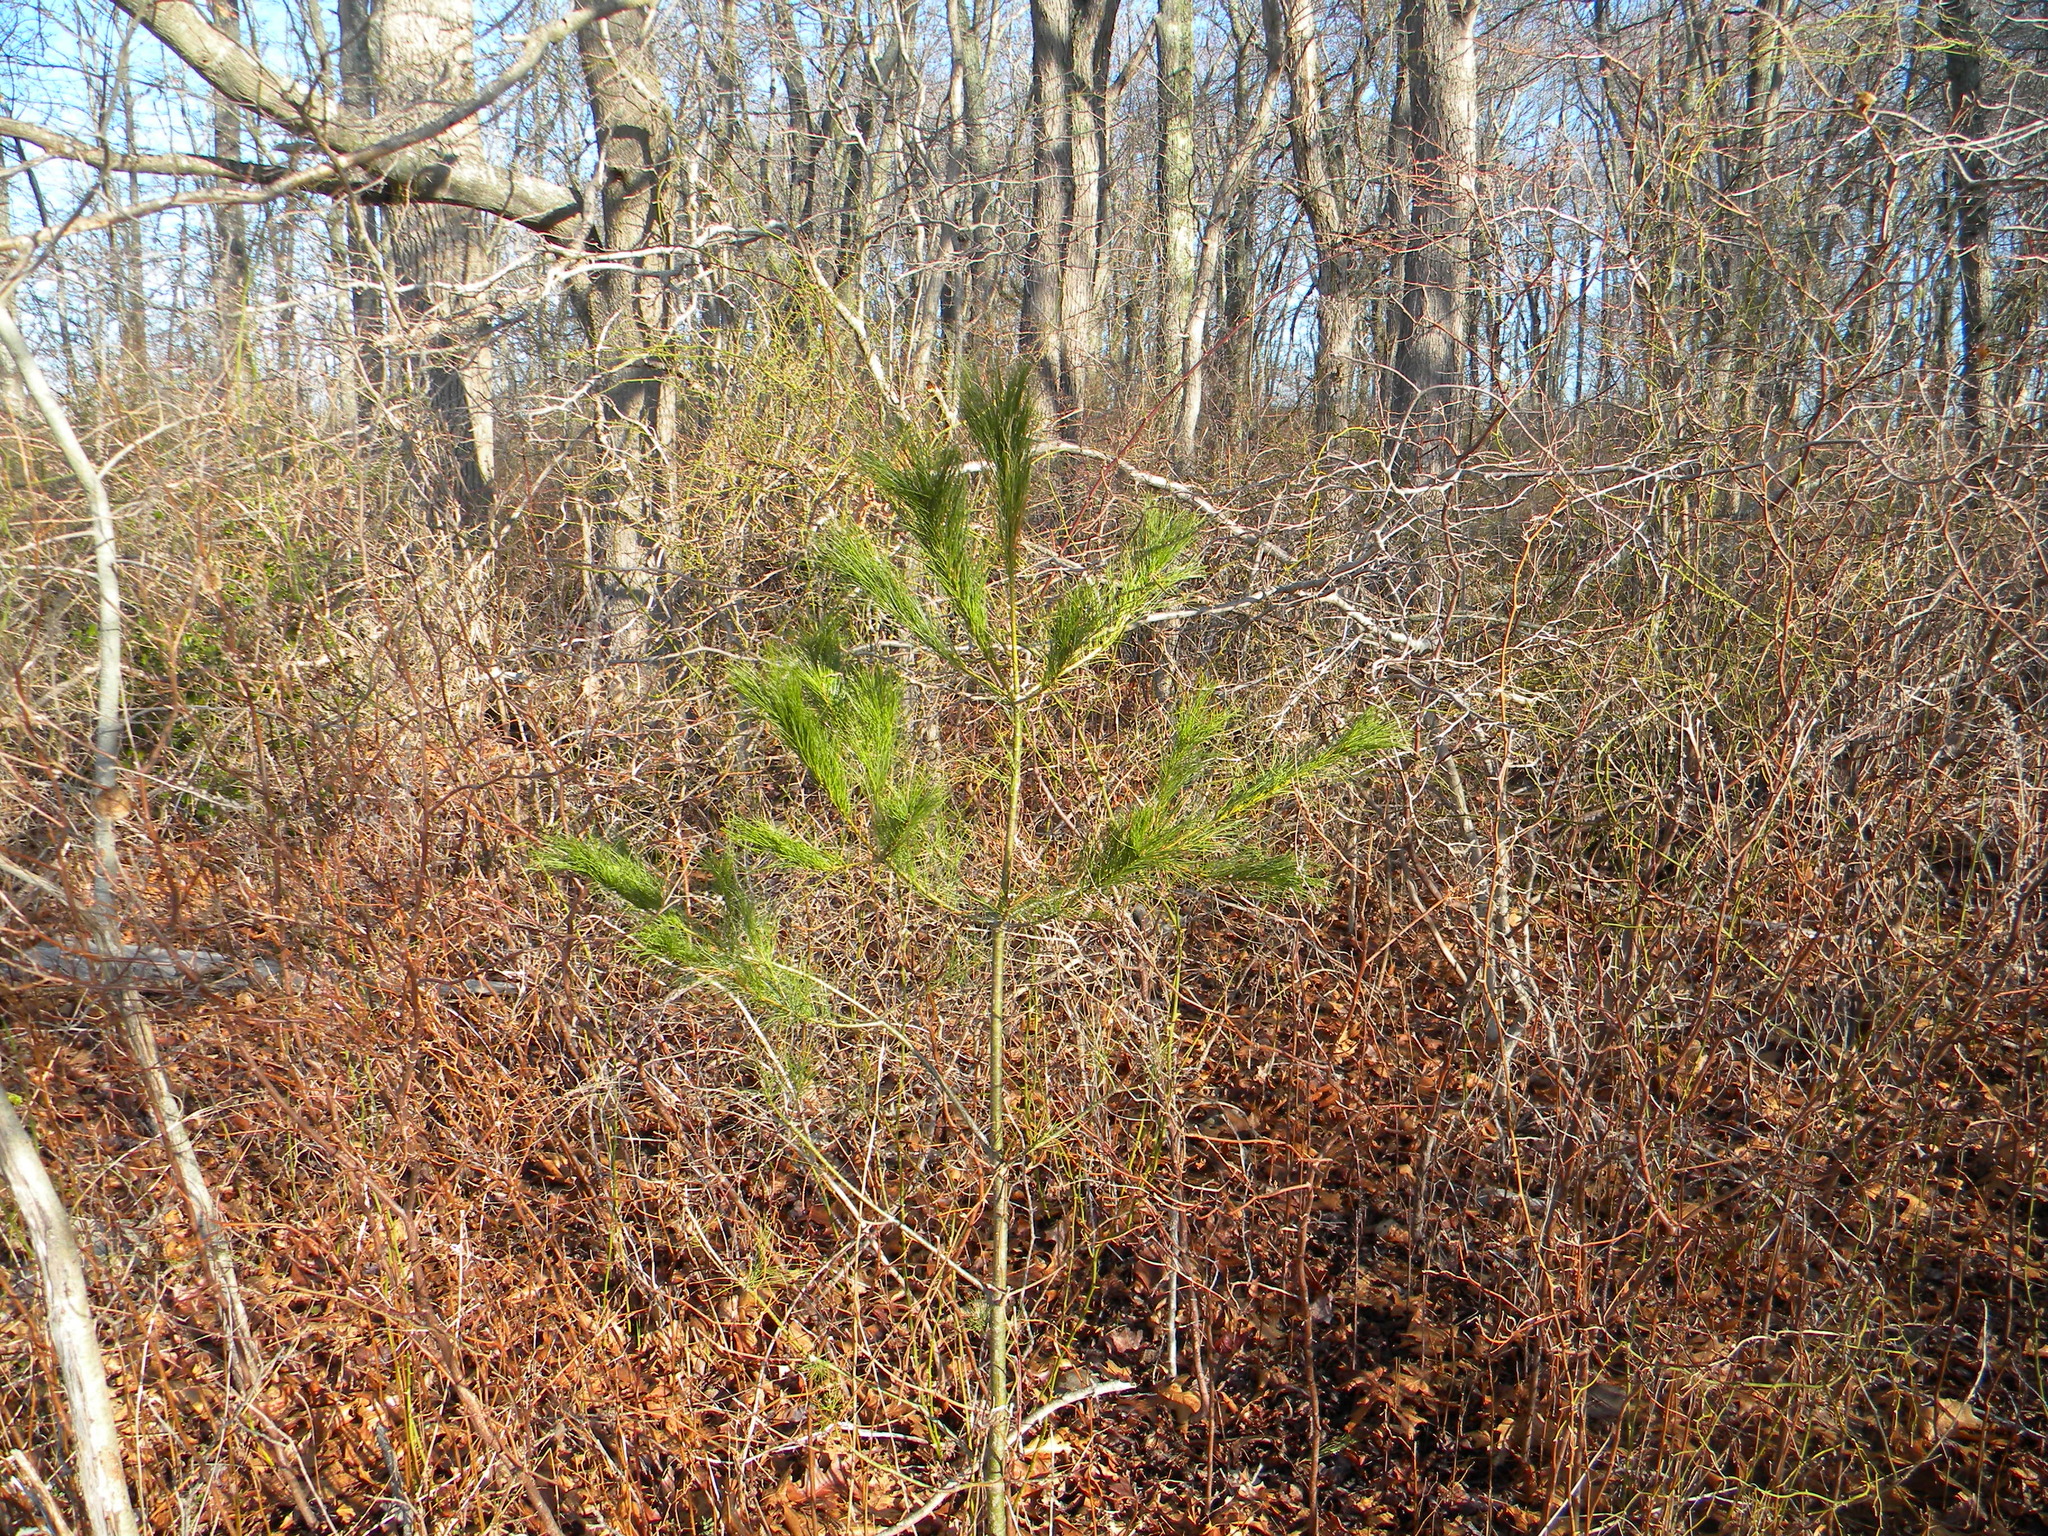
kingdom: Plantae
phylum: Tracheophyta
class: Pinopsida
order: Pinales
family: Pinaceae
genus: Pinus
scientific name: Pinus strobus
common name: Weymouth pine
